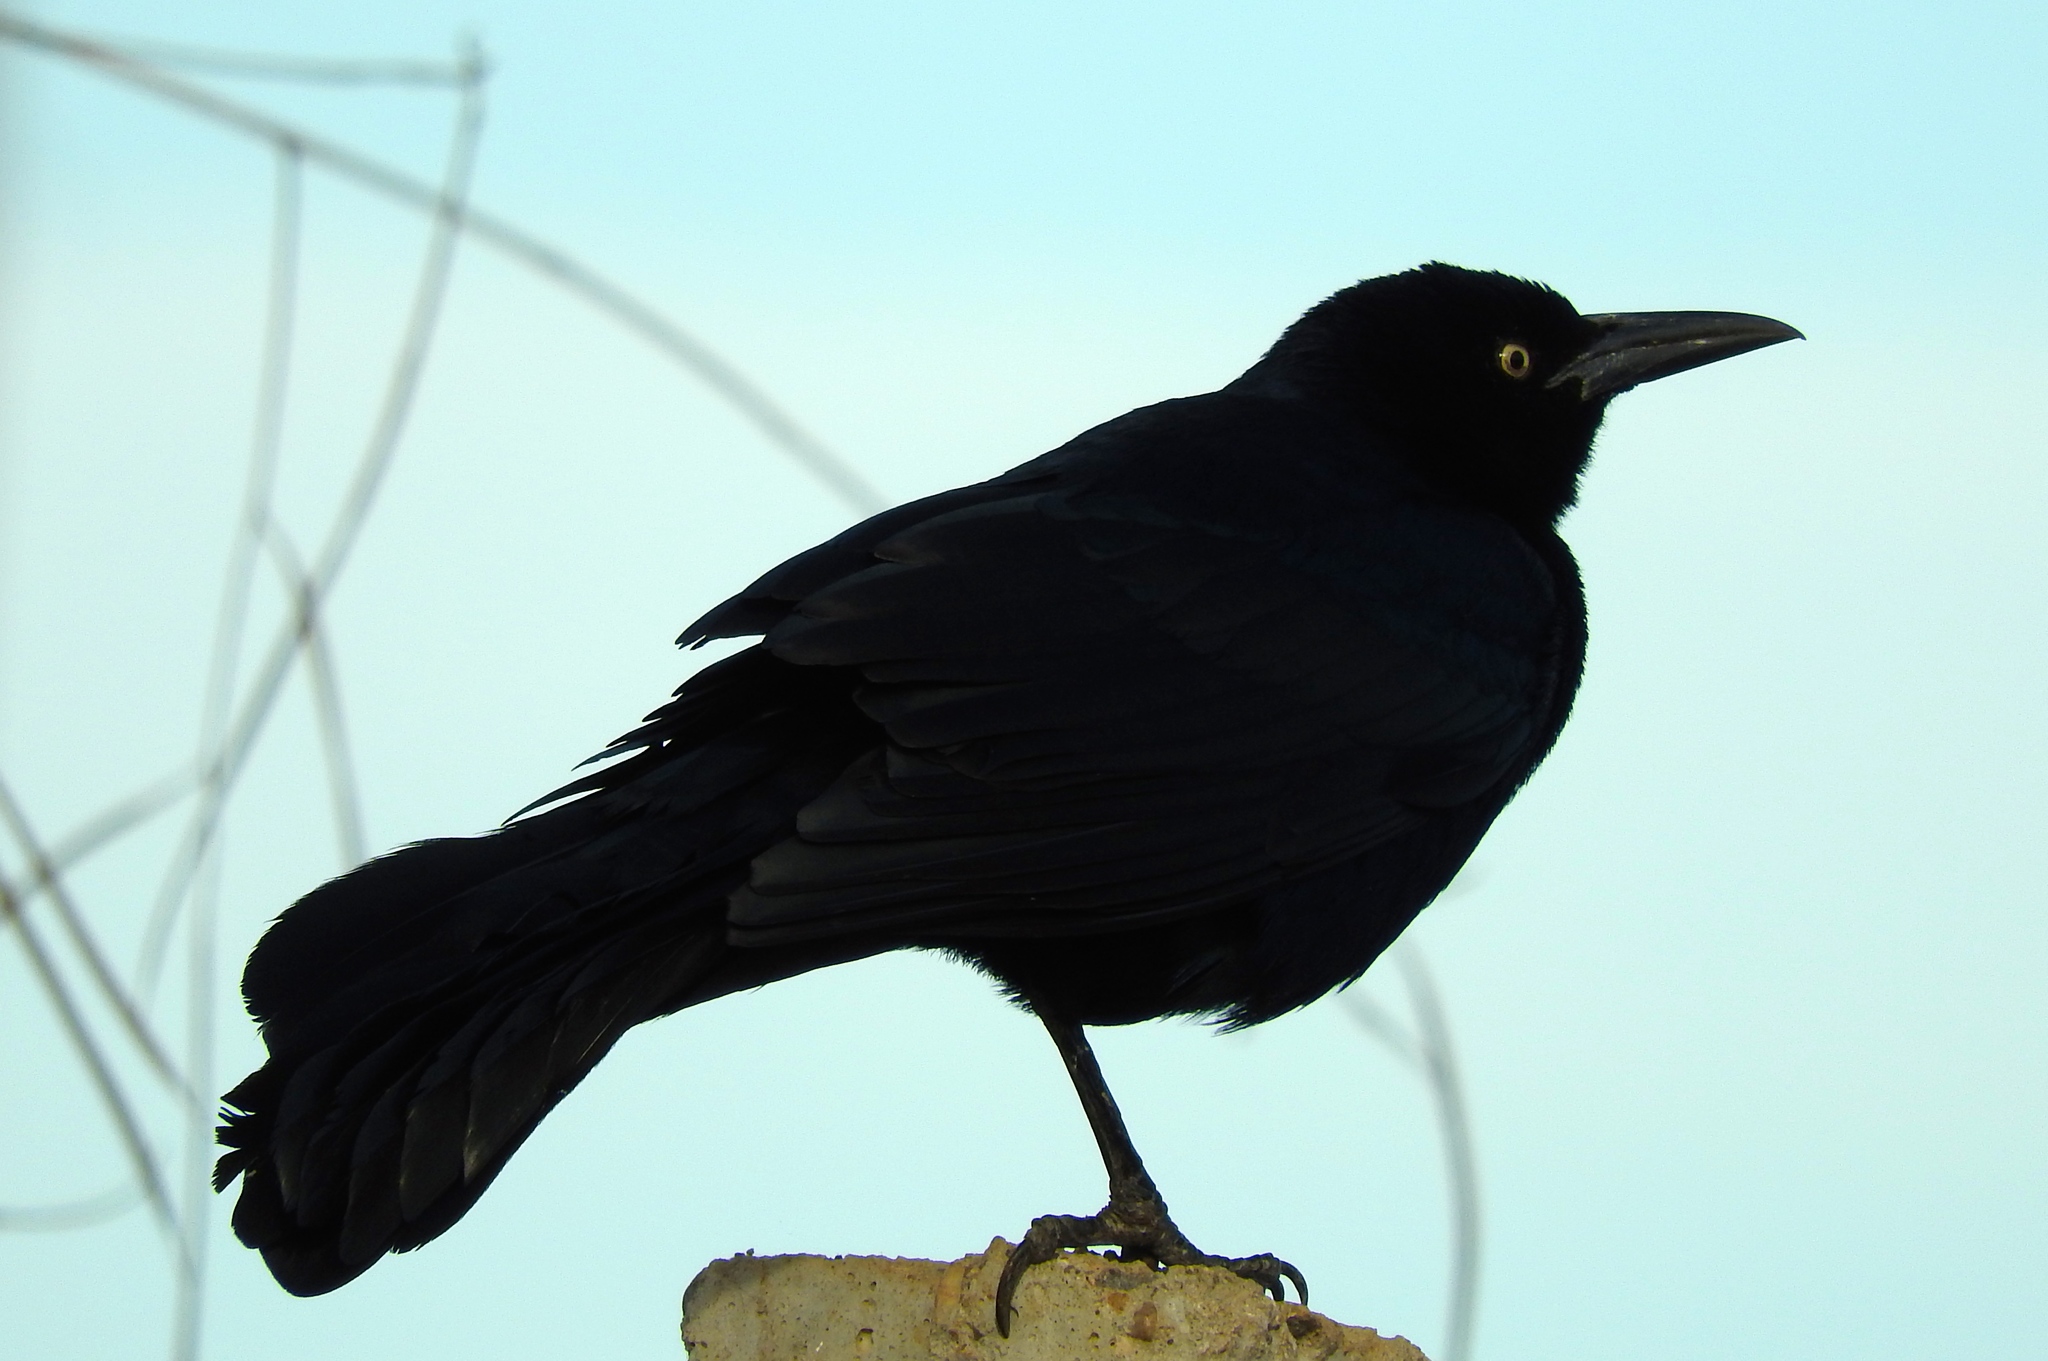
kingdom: Animalia
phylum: Chordata
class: Aves
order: Passeriformes
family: Icteridae
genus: Quiscalus
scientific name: Quiscalus mexicanus
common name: Great-tailed grackle
